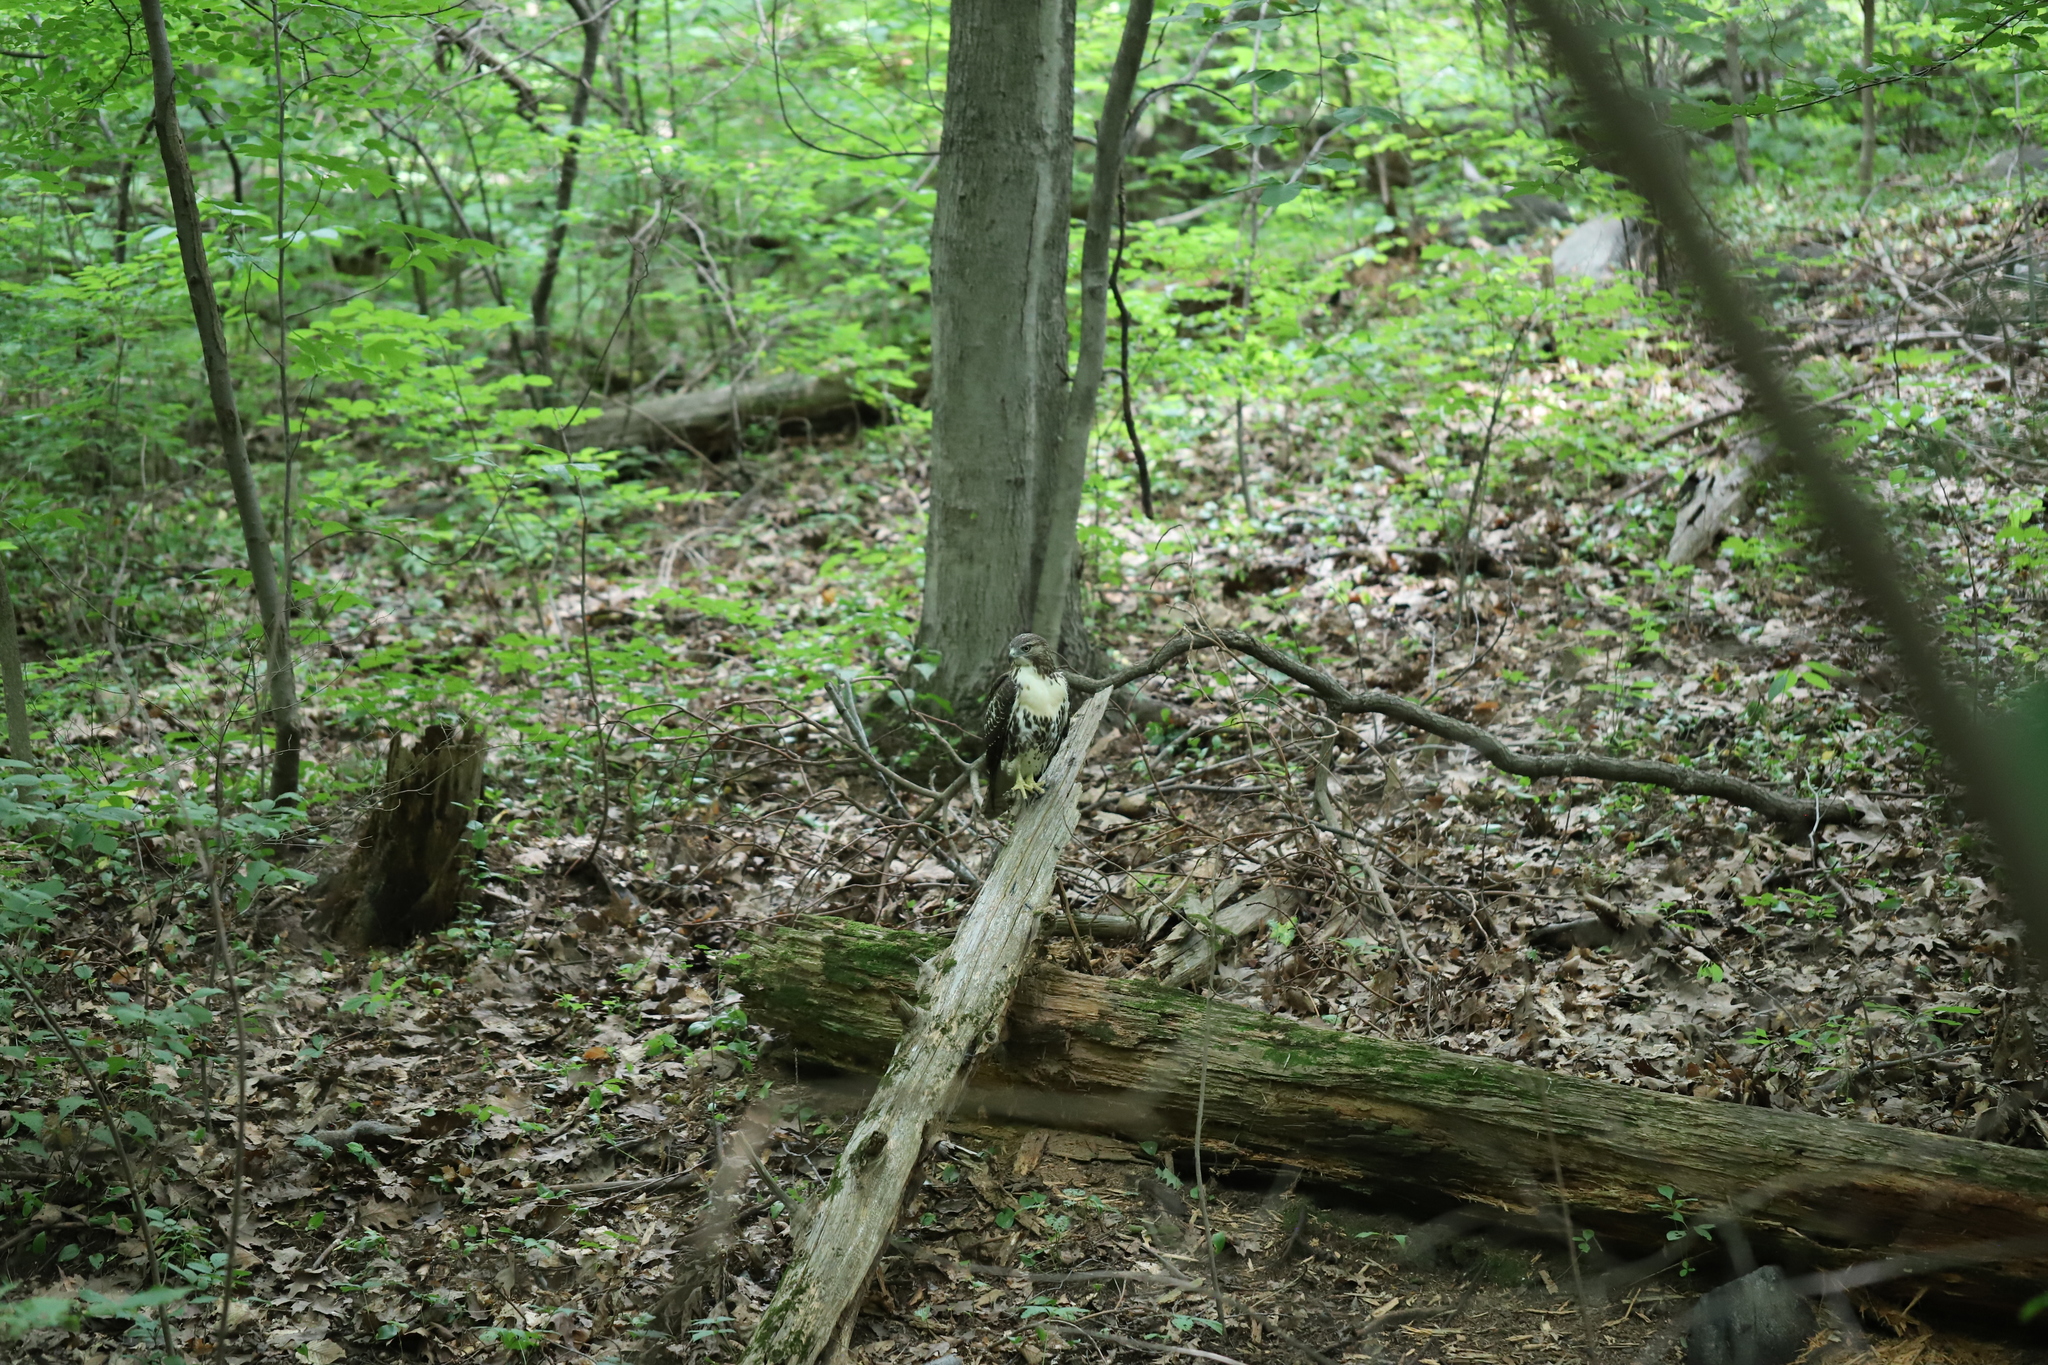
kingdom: Animalia
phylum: Chordata
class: Aves
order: Accipitriformes
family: Accipitridae
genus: Buteo
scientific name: Buteo jamaicensis
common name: Red-tailed hawk
